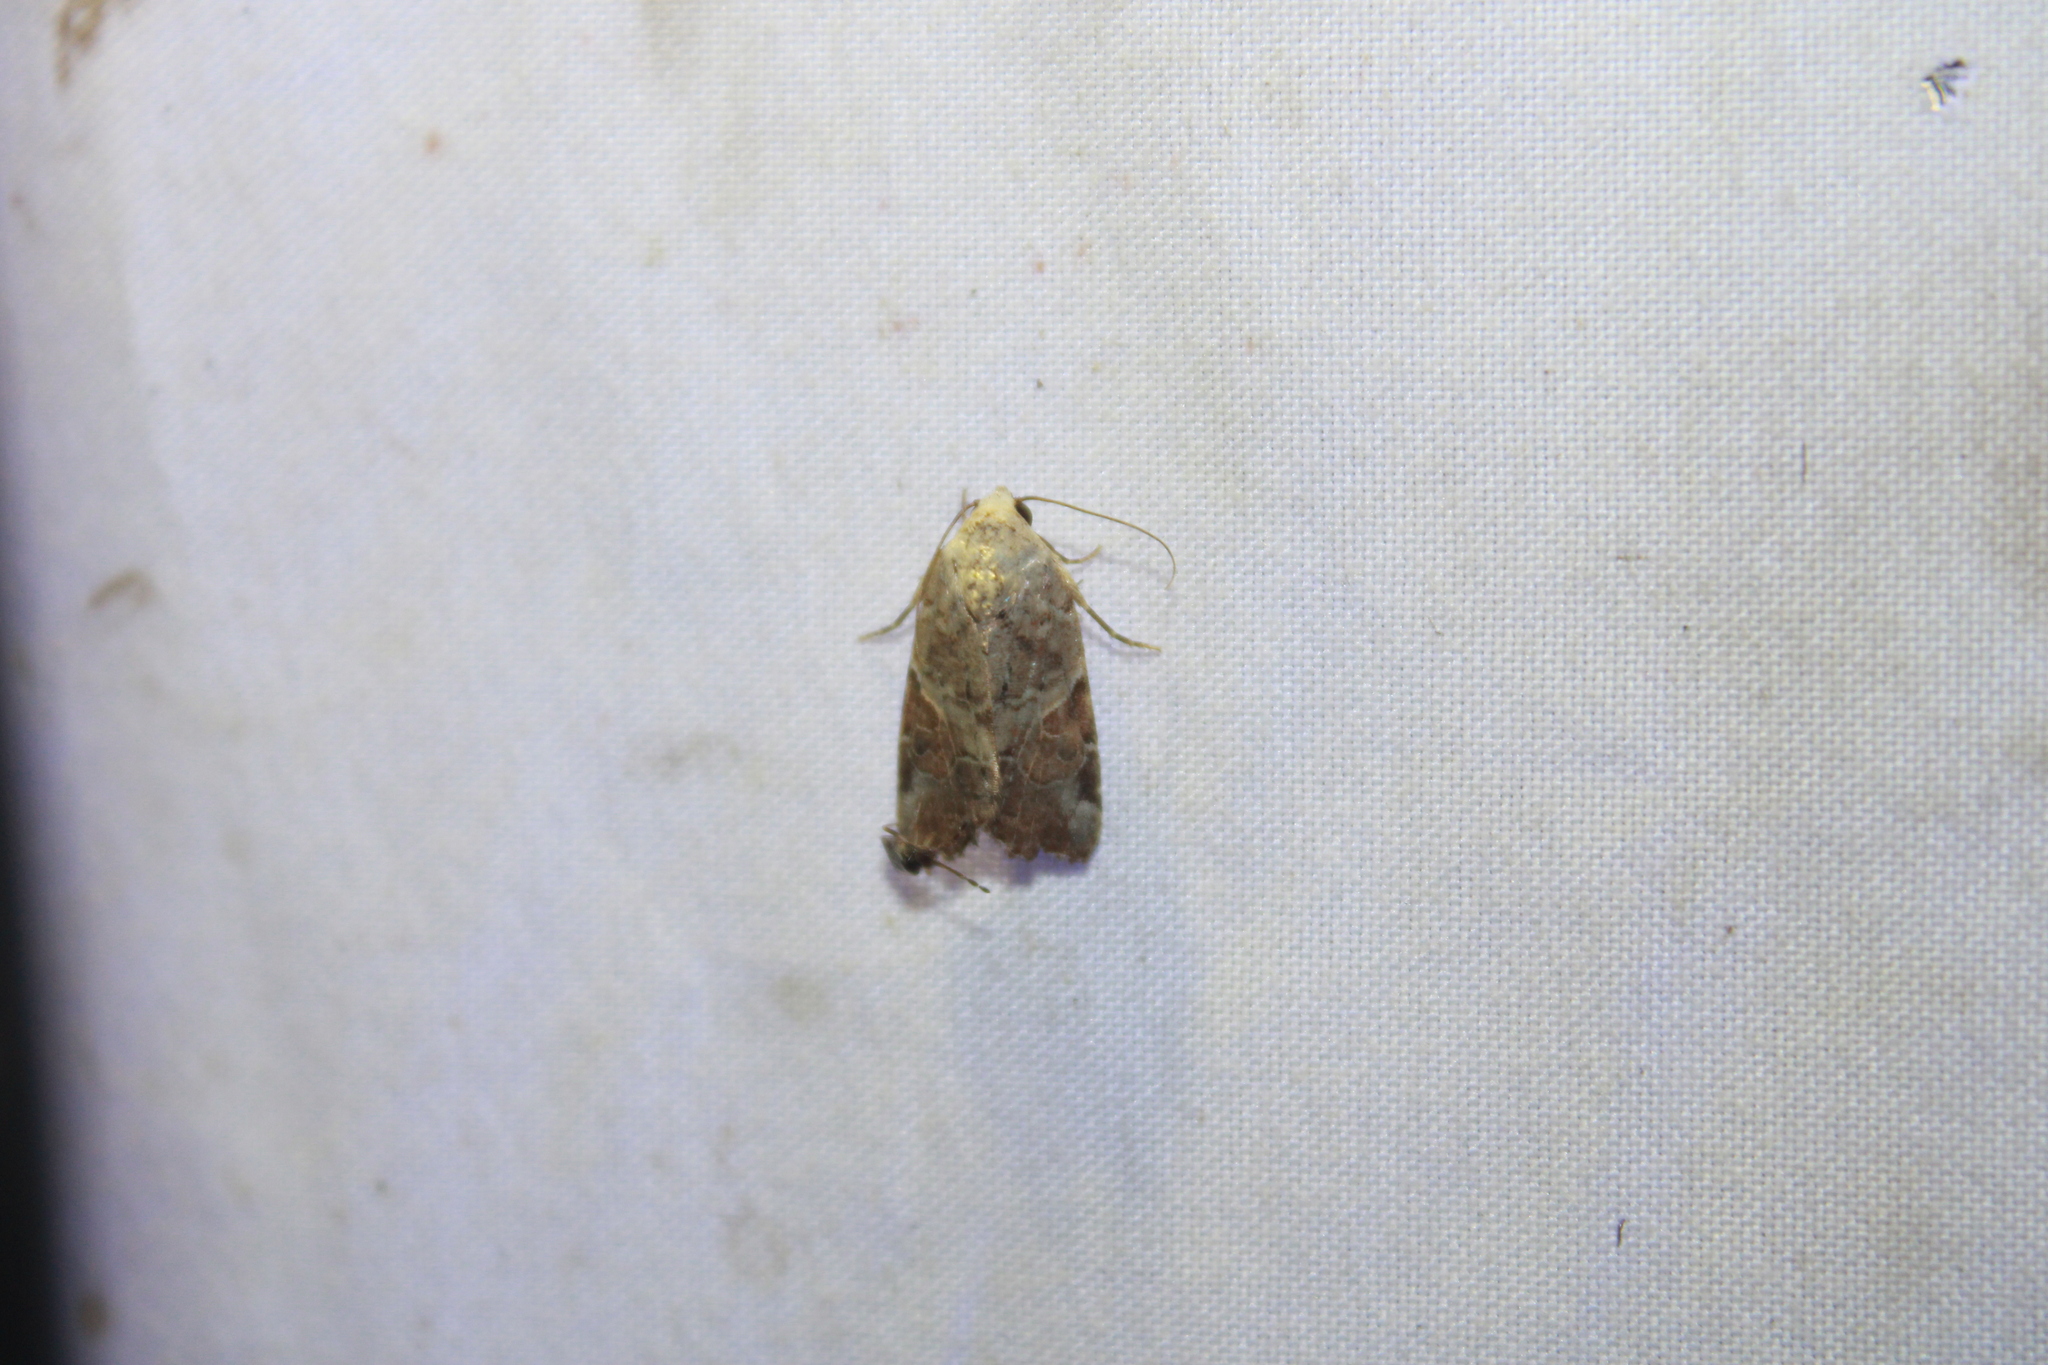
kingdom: Animalia
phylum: Arthropoda
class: Insecta
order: Lepidoptera
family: Noctuidae
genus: Gonodes
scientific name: Gonodes liquida
